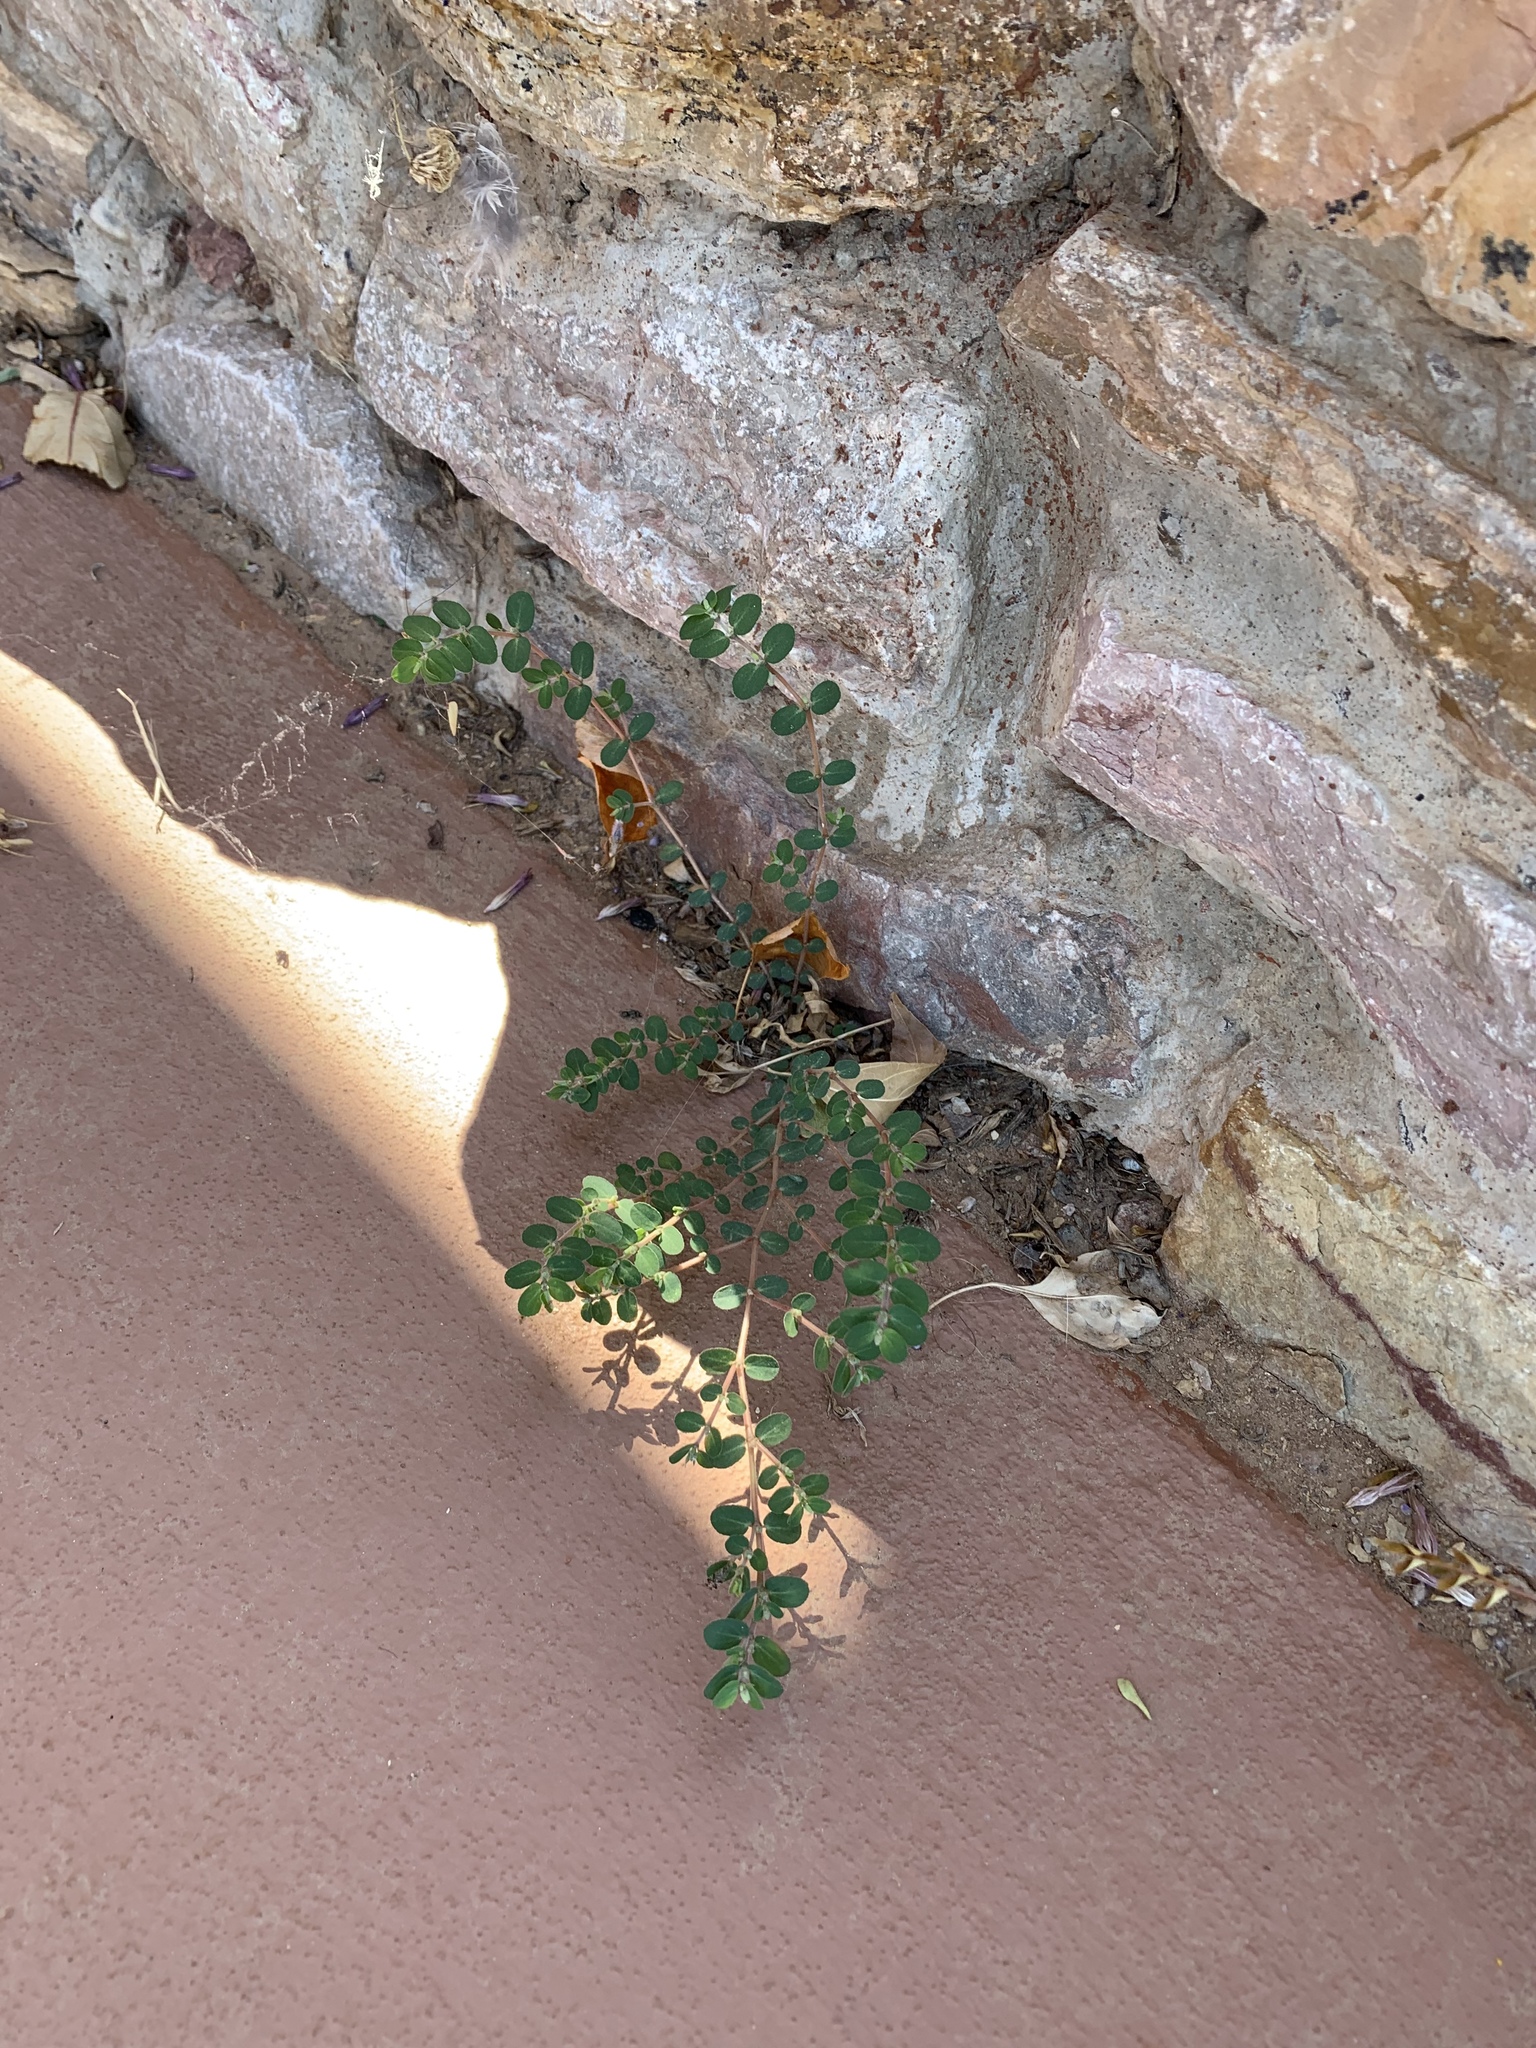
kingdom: Plantae
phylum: Tracheophyta
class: Magnoliopsida
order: Malpighiales
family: Euphorbiaceae
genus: Euphorbia
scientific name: Euphorbia prostrata
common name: Prostrate sandmat
